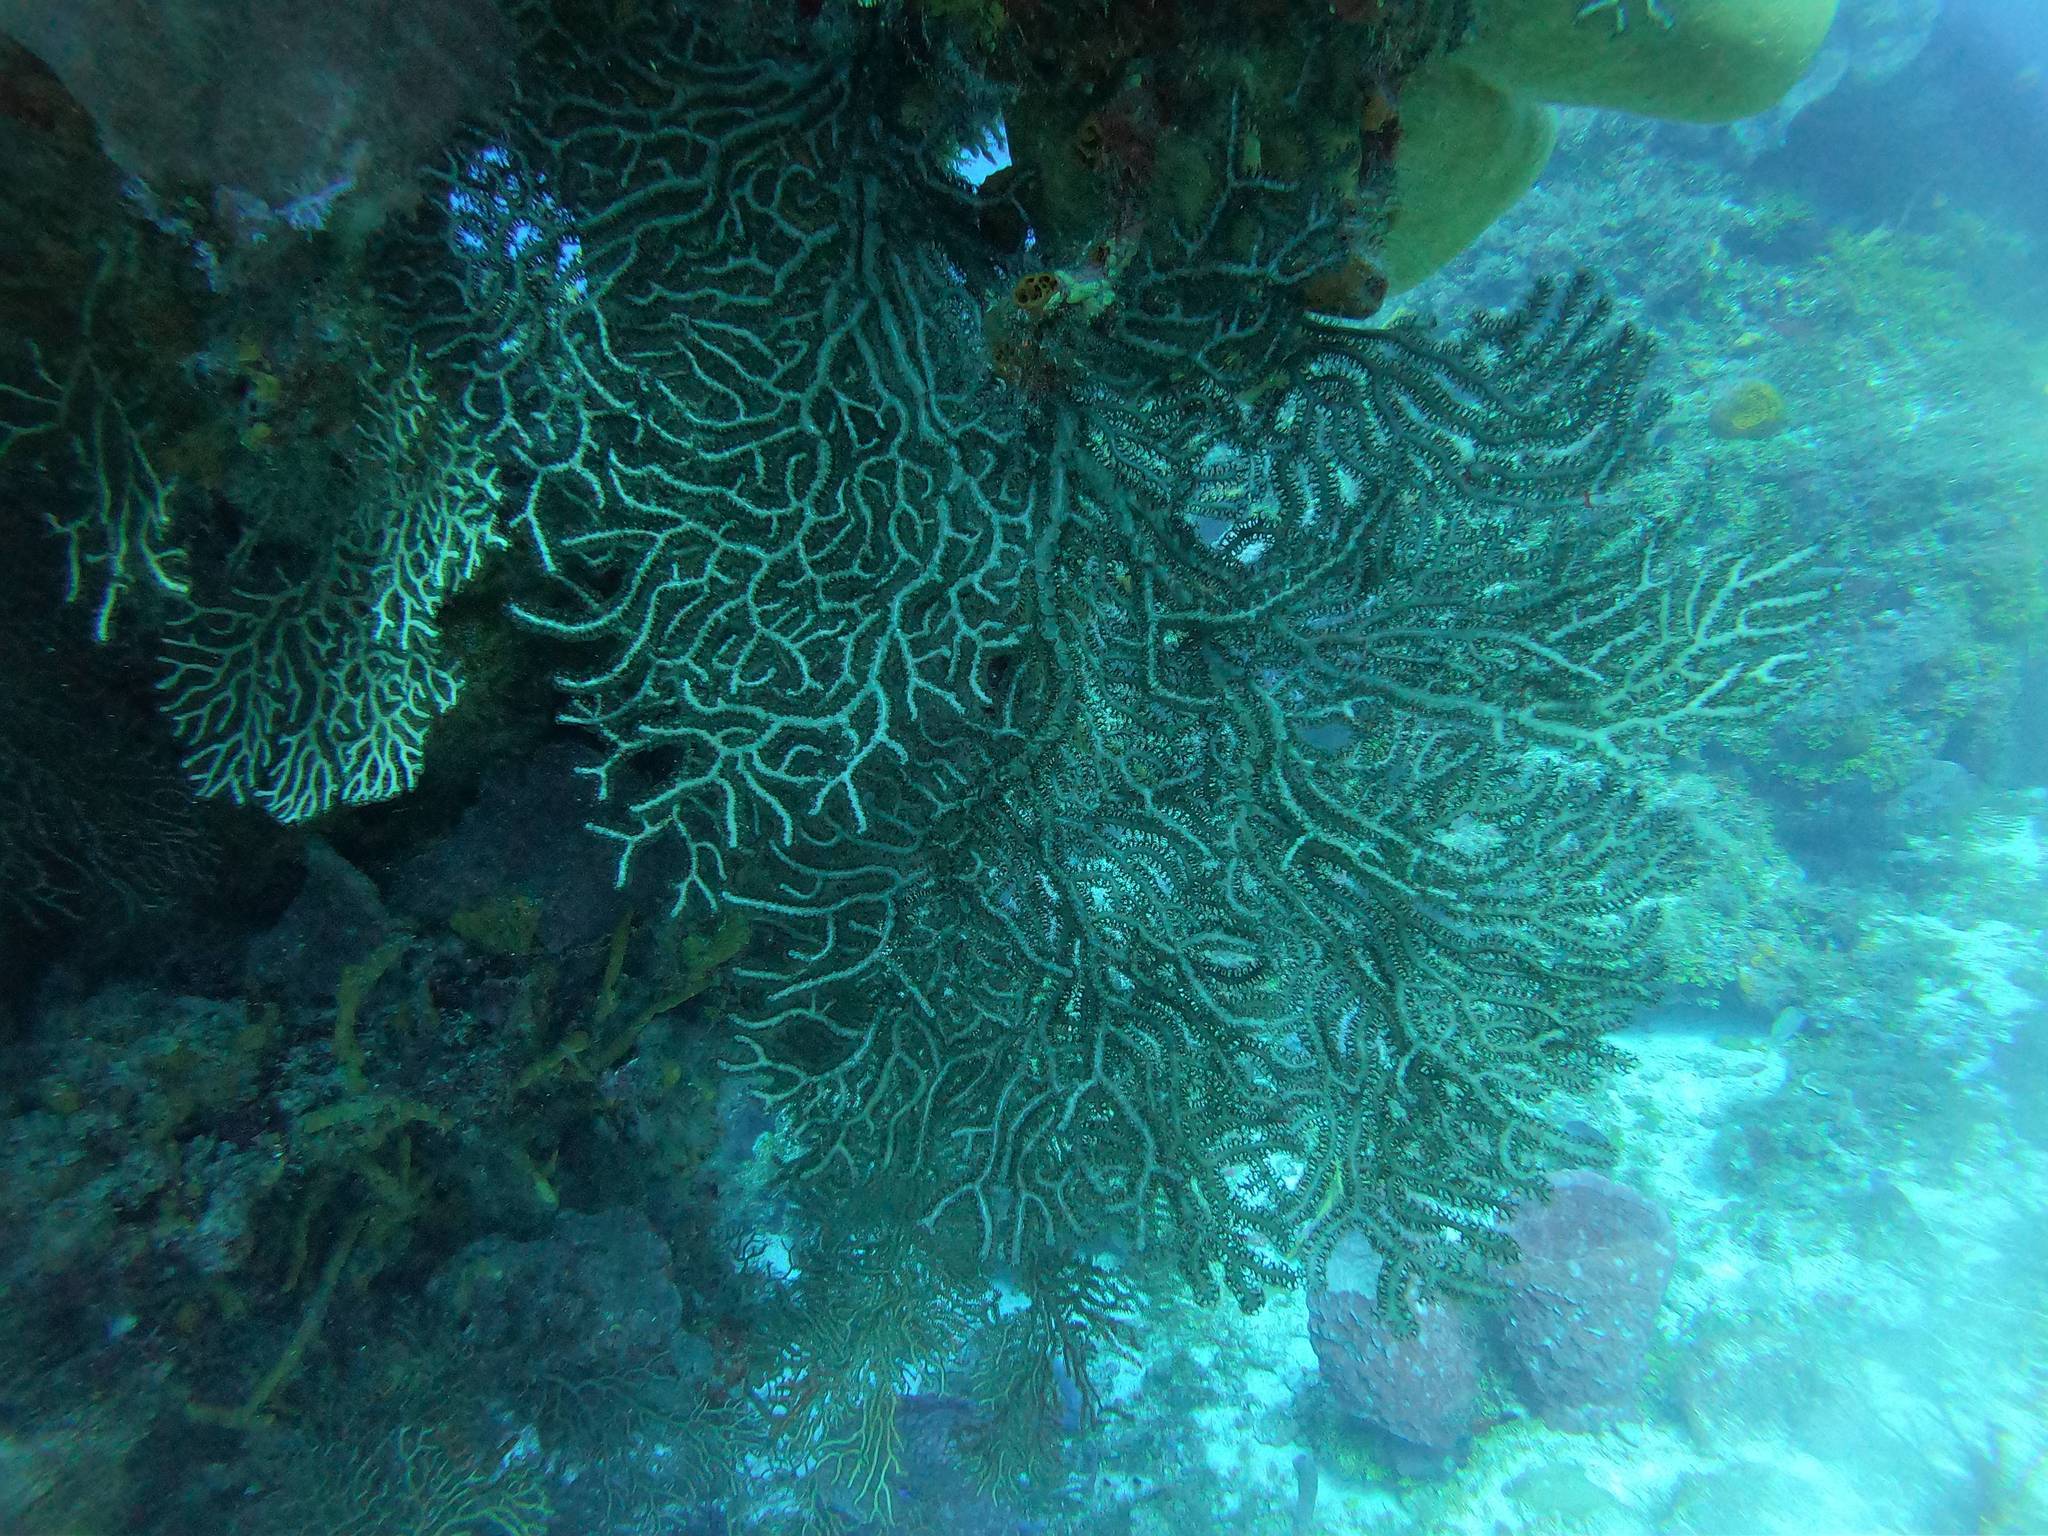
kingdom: Animalia
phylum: Cnidaria
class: Anthozoa
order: Malacalcyonacea
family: Melithaeidae
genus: Iciligorgia
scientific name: Iciligorgia schrammi
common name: Black sea fan
